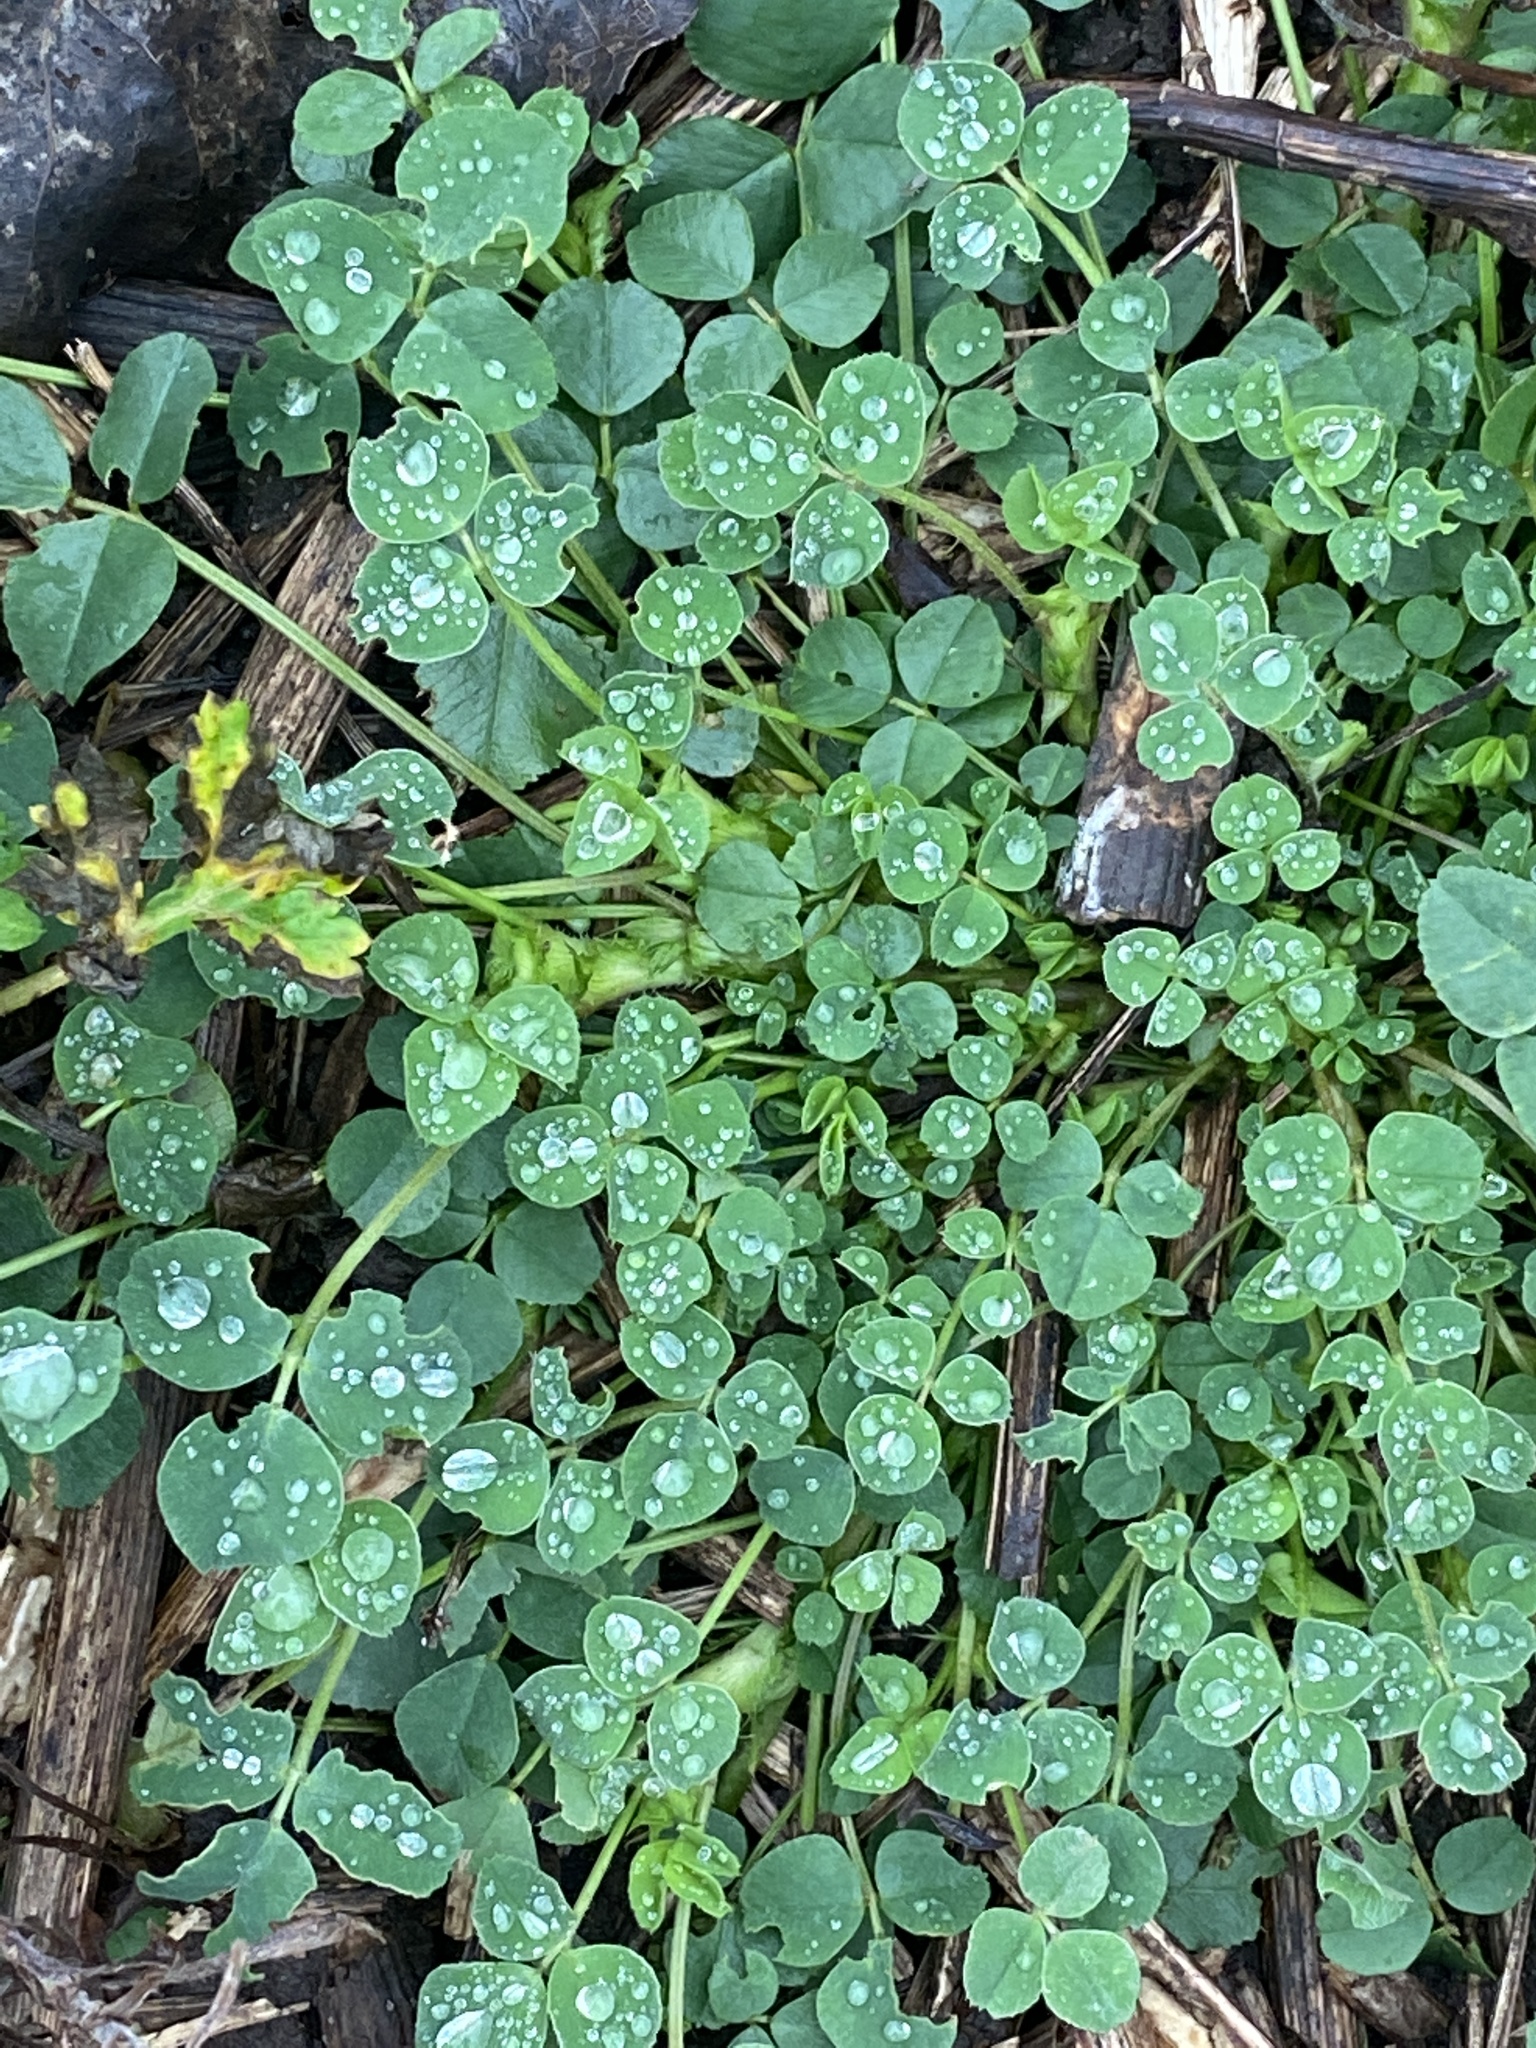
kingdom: Plantae
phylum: Tracheophyta
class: Magnoliopsida
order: Fabales
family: Fabaceae
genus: Medicago
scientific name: Medicago lupulina
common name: Black medick
